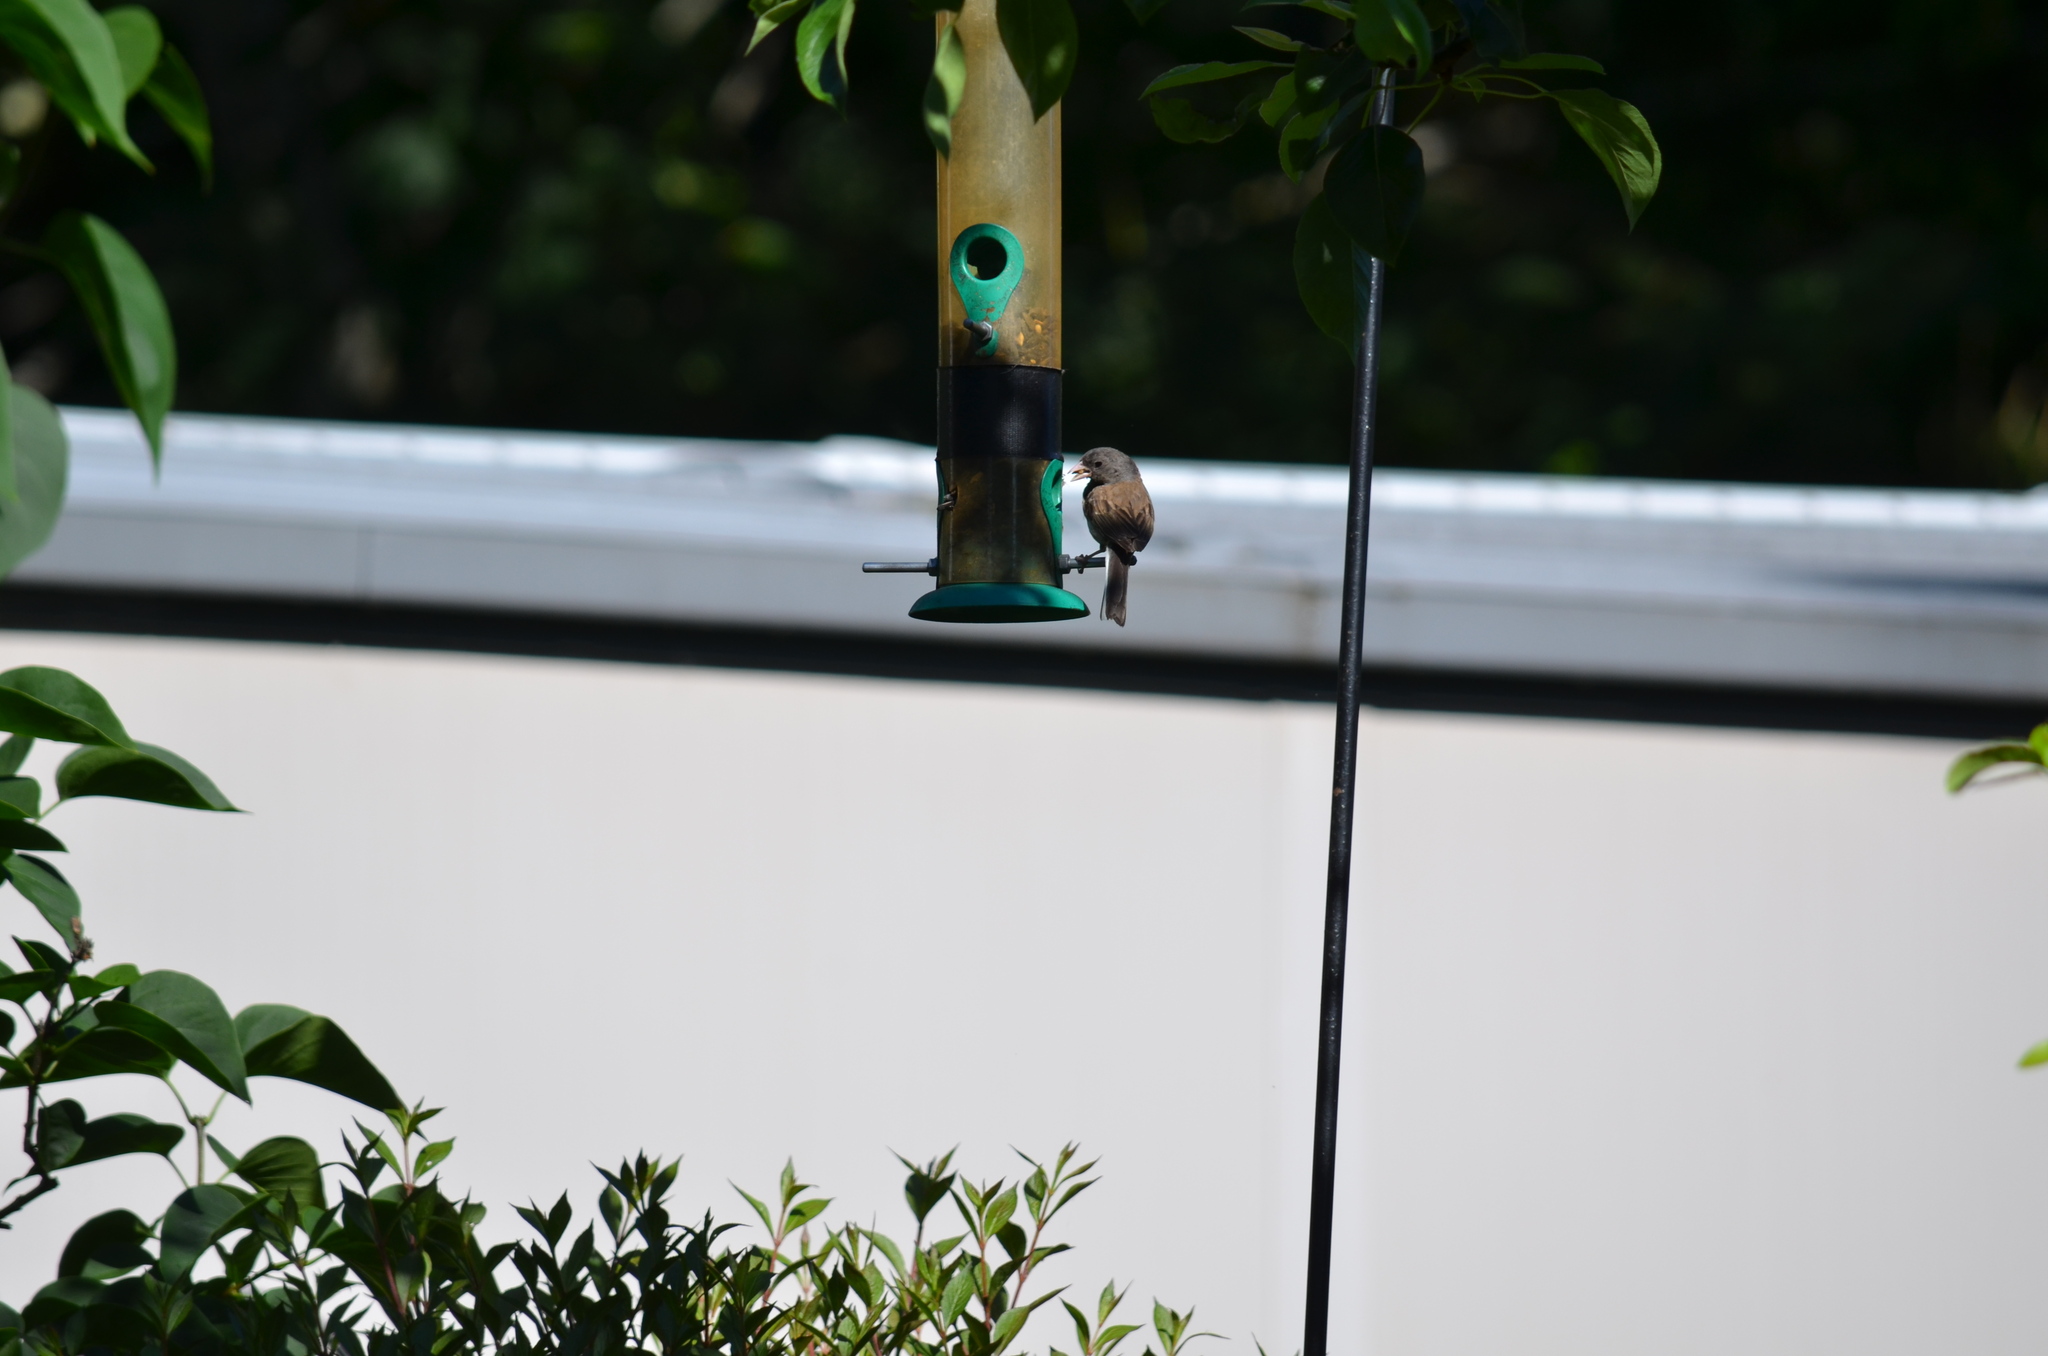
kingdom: Animalia
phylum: Chordata
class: Aves
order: Passeriformes
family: Passerellidae
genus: Junco
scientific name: Junco hyemalis
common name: Dark-eyed junco
